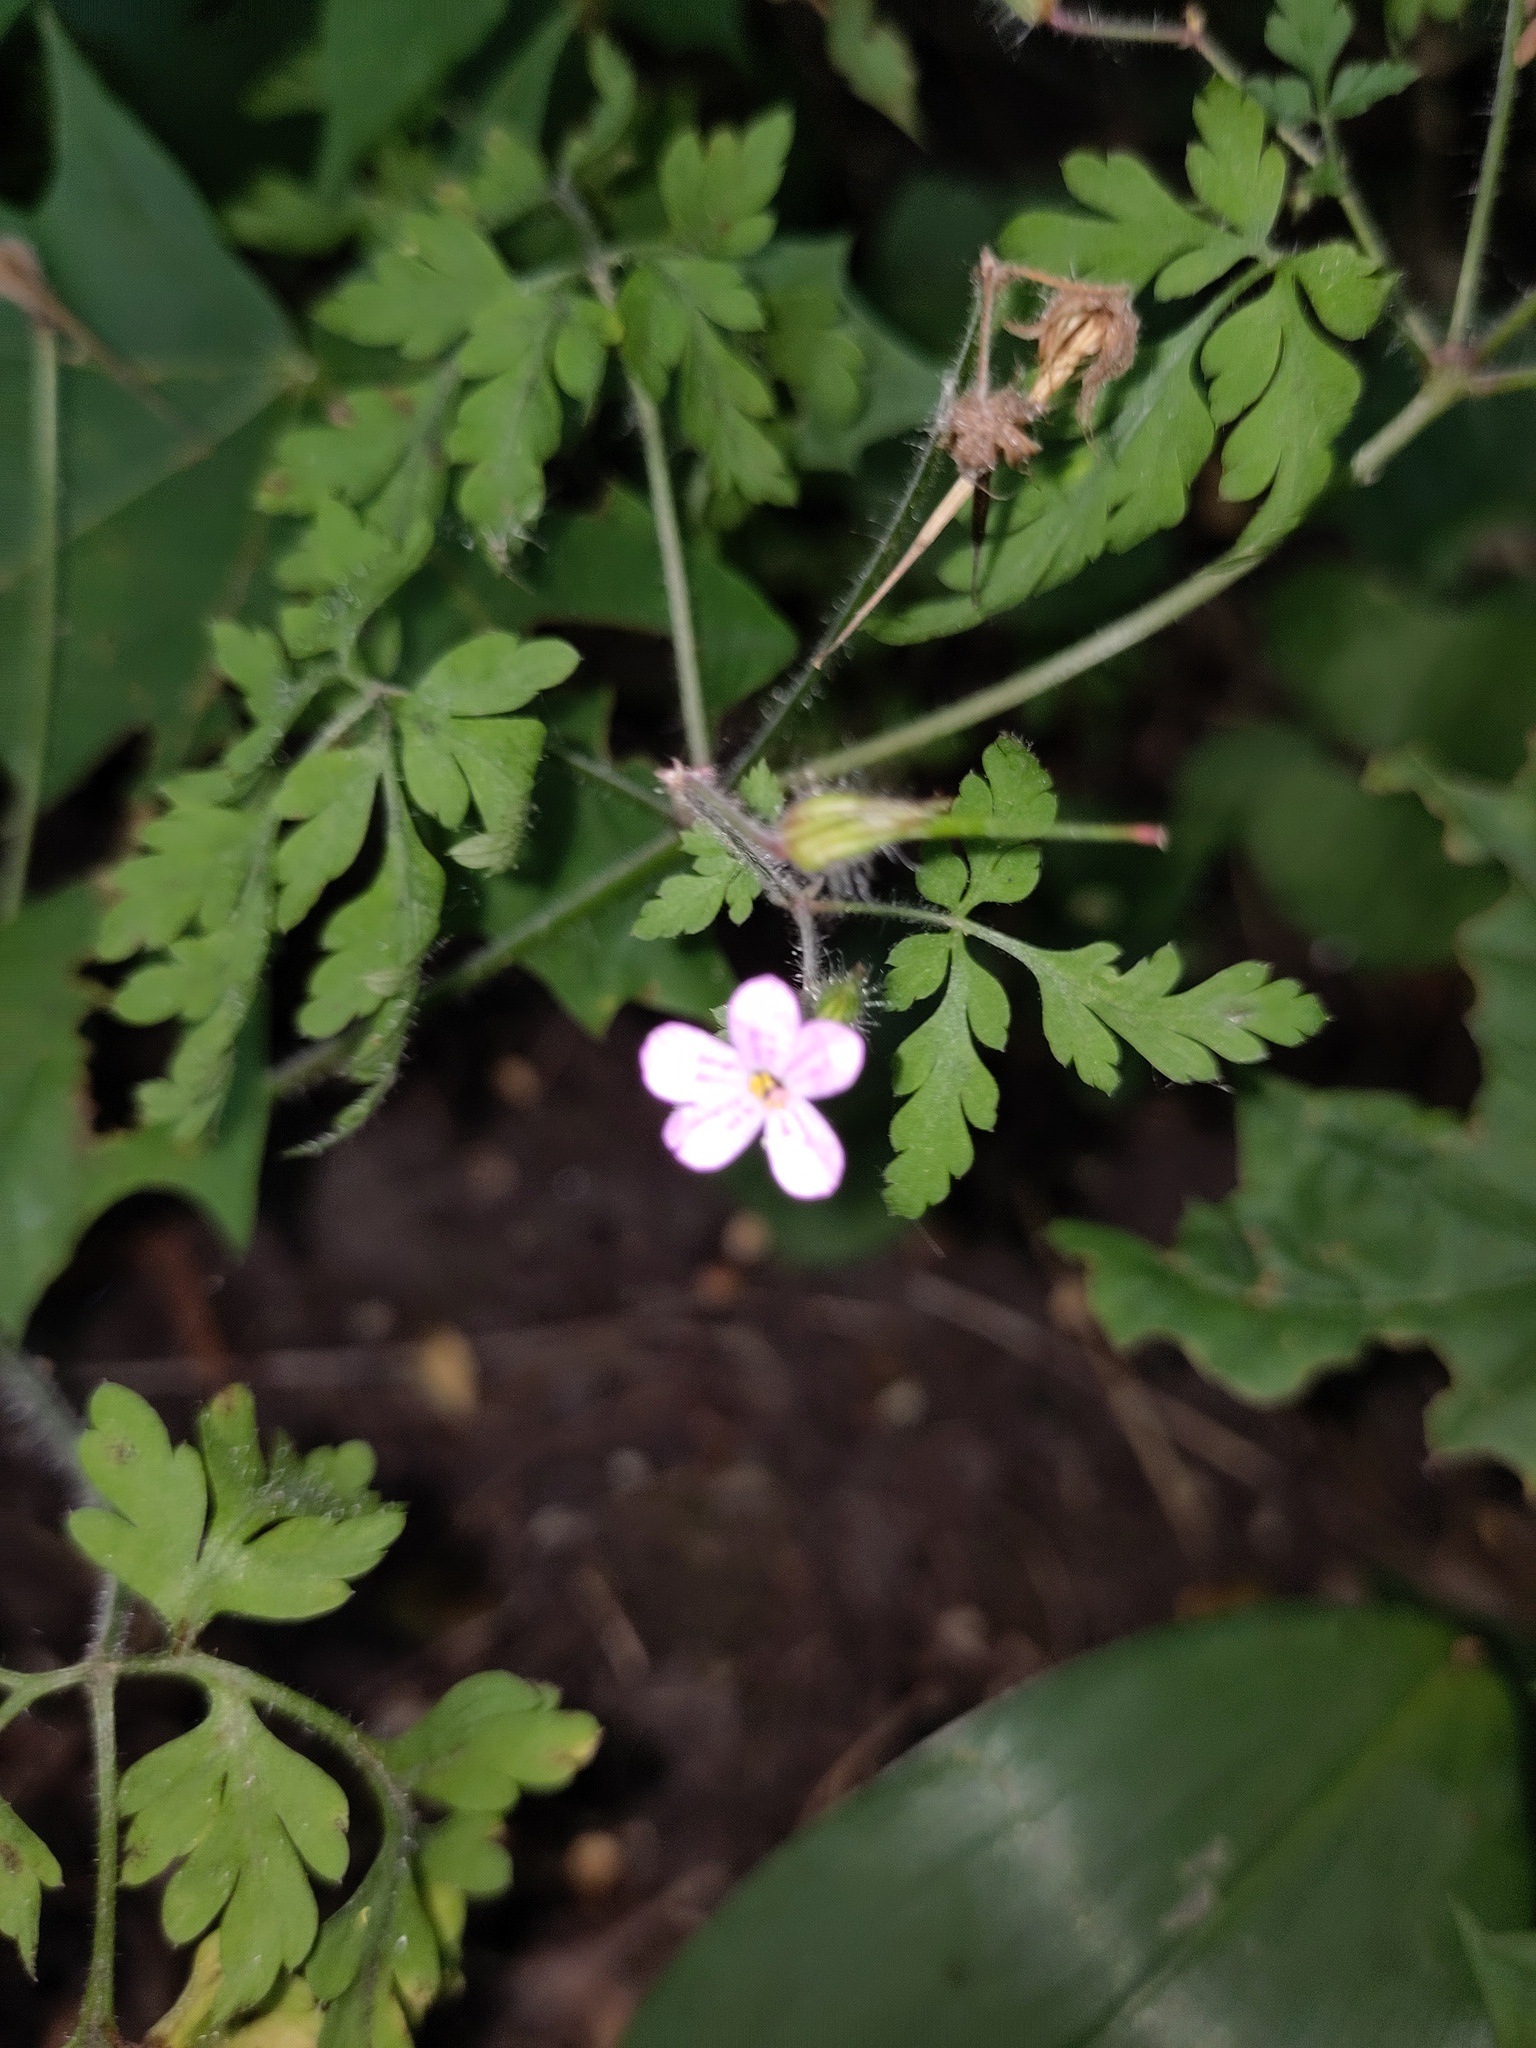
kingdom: Plantae
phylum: Tracheophyta
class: Magnoliopsida
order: Geraniales
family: Geraniaceae
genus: Geranium
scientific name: Geranium robertianum
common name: Herb-robert
